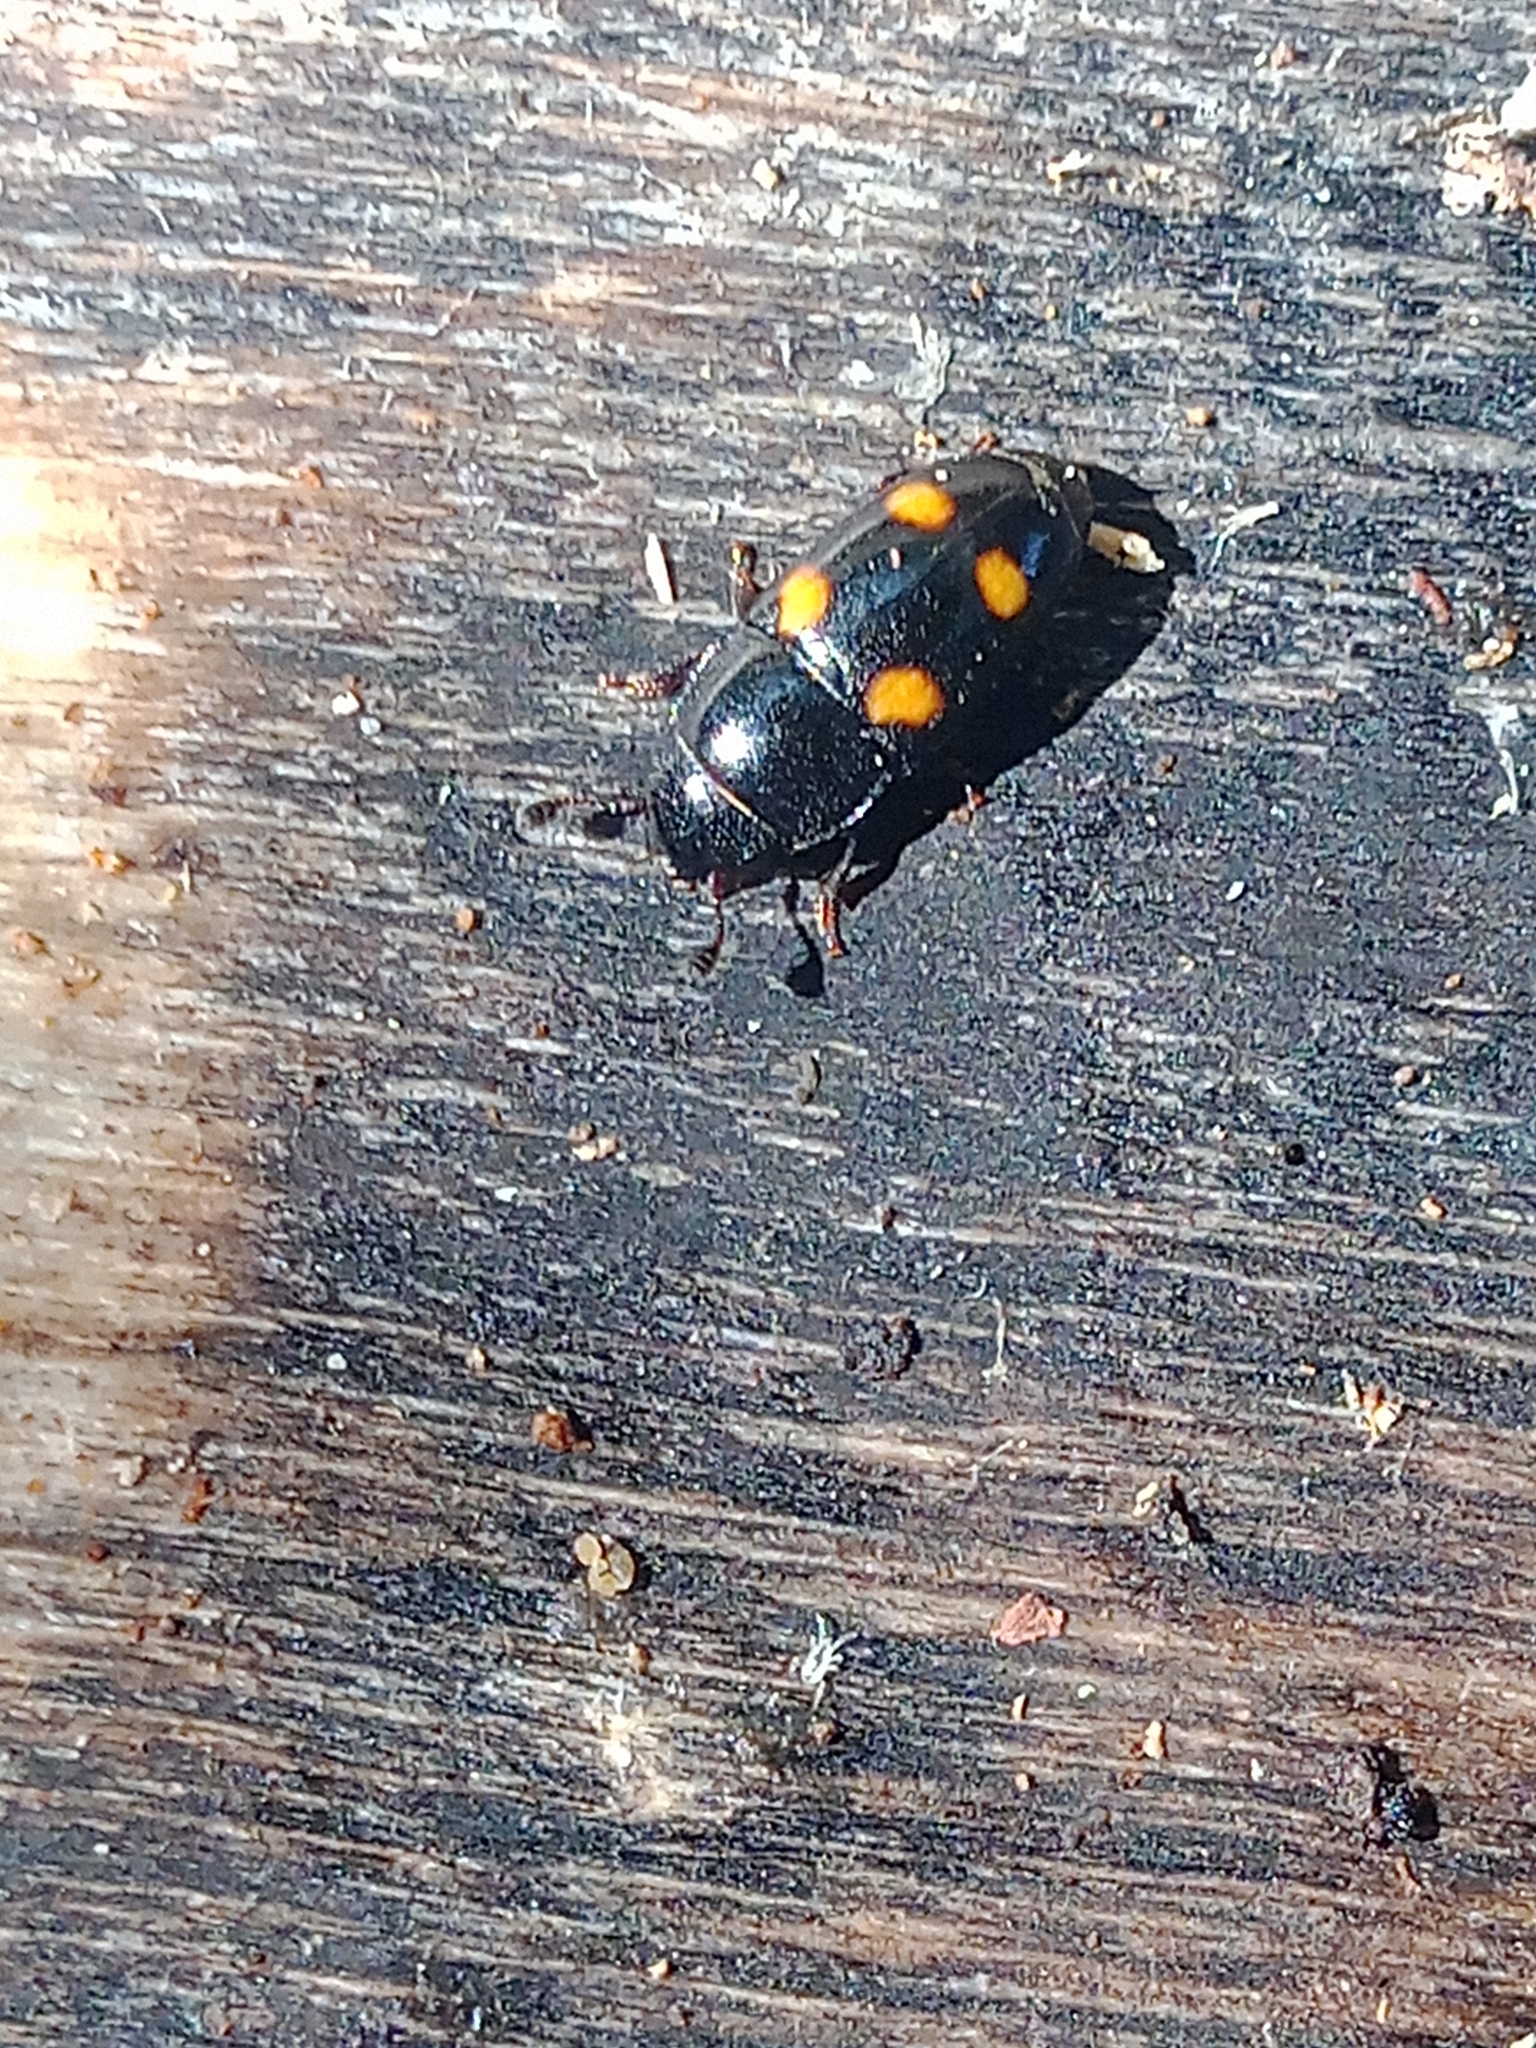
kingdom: Animalia
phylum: Arthropoda
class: Insecta
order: Coleoptera
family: Nitidulidae
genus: Glischrochilus
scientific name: Glischrochilus hortensis
